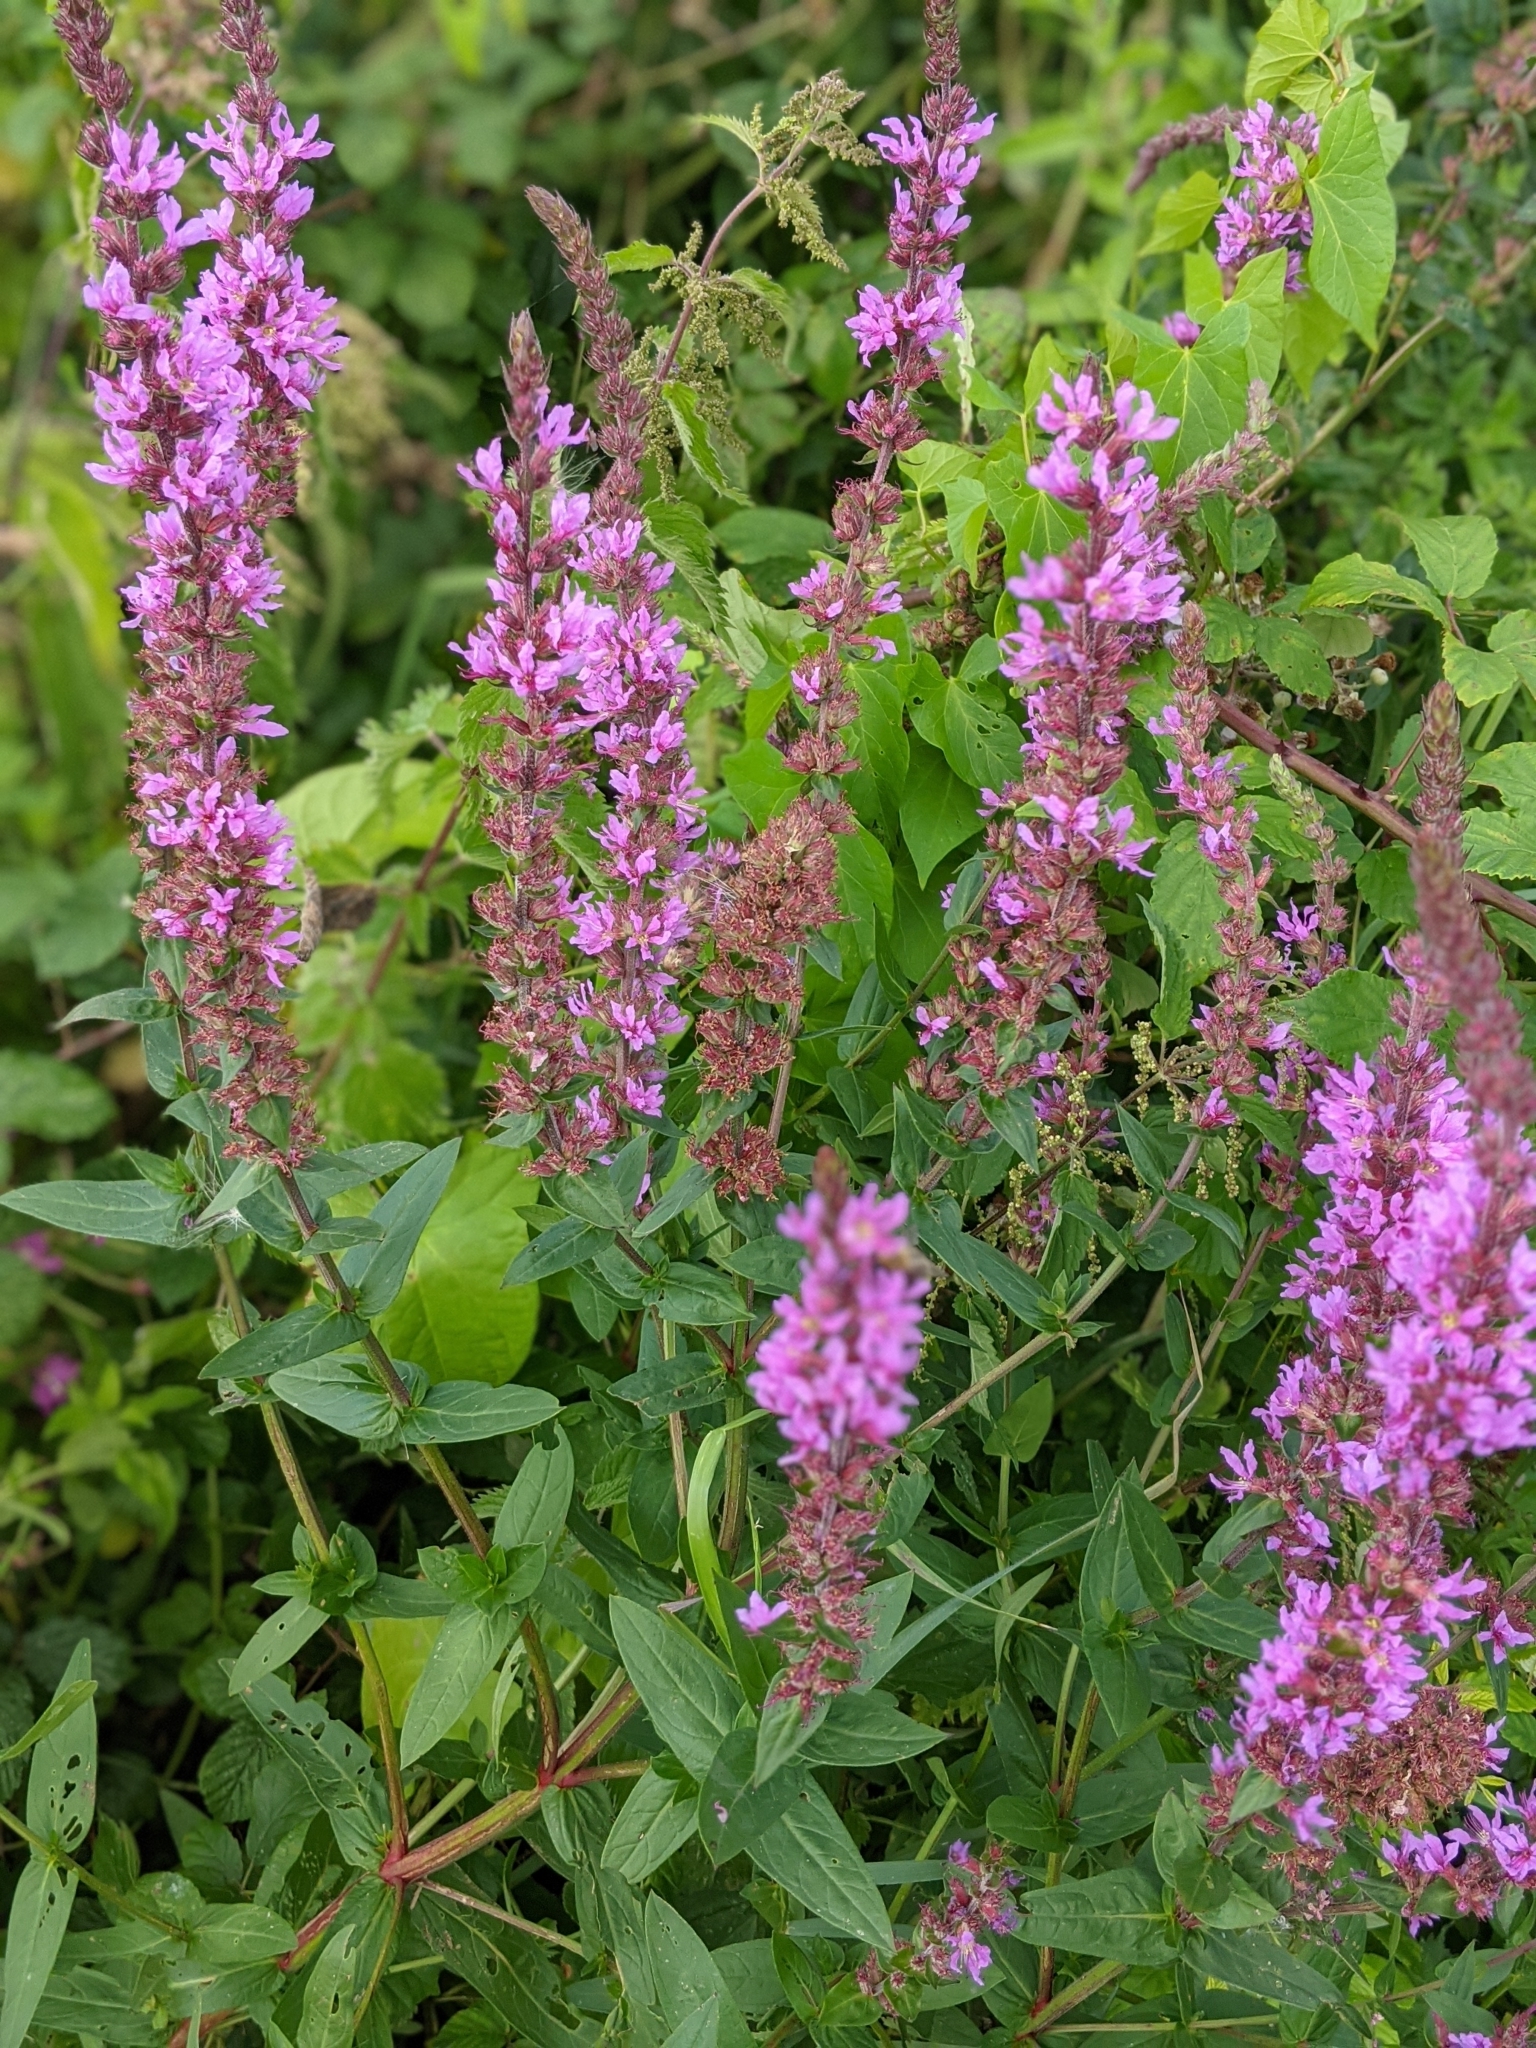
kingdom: Plantae
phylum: Tracheophyta
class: Magnoliopsida
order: Myrtales
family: Lythraceae
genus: Lythrum
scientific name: Lythrum salicaria
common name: Purple loosestrife
